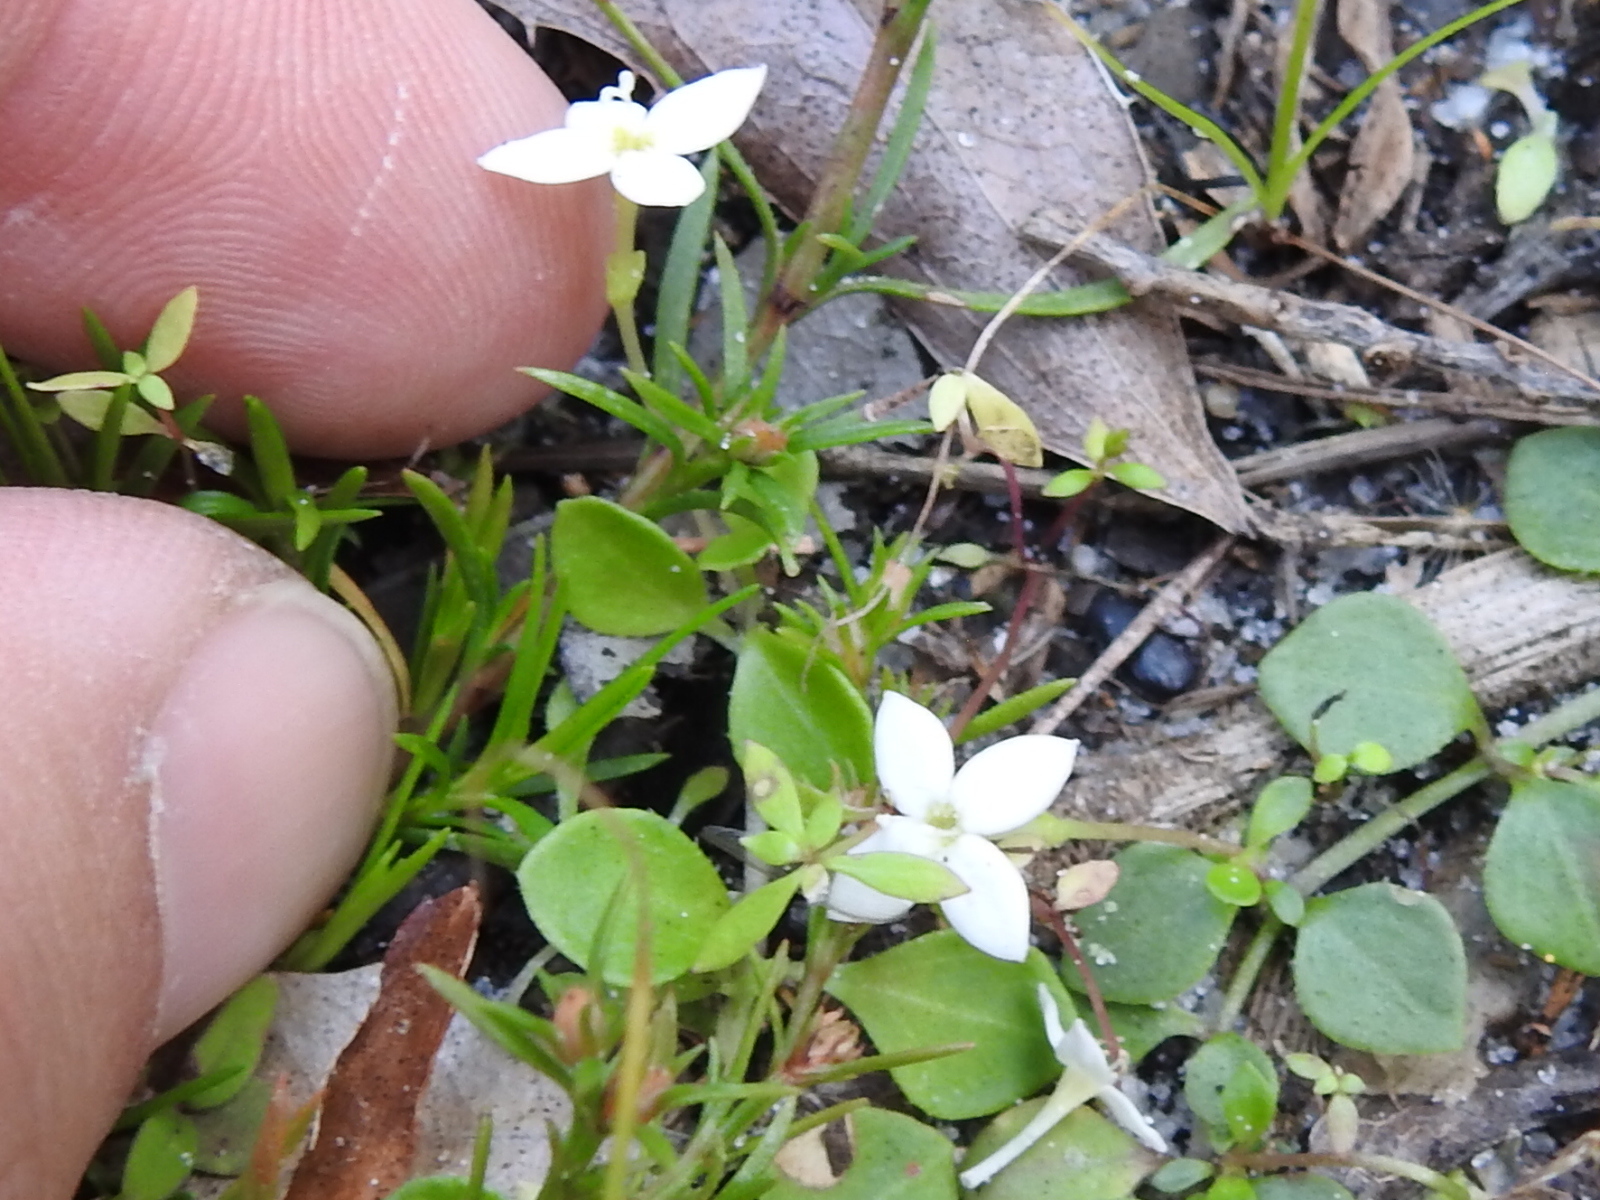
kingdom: Plantae
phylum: Tracheophyta
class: Magnoliopsida
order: Gentianales
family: Rubiaceae
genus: Houstonia
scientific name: Houstonia procumbens
